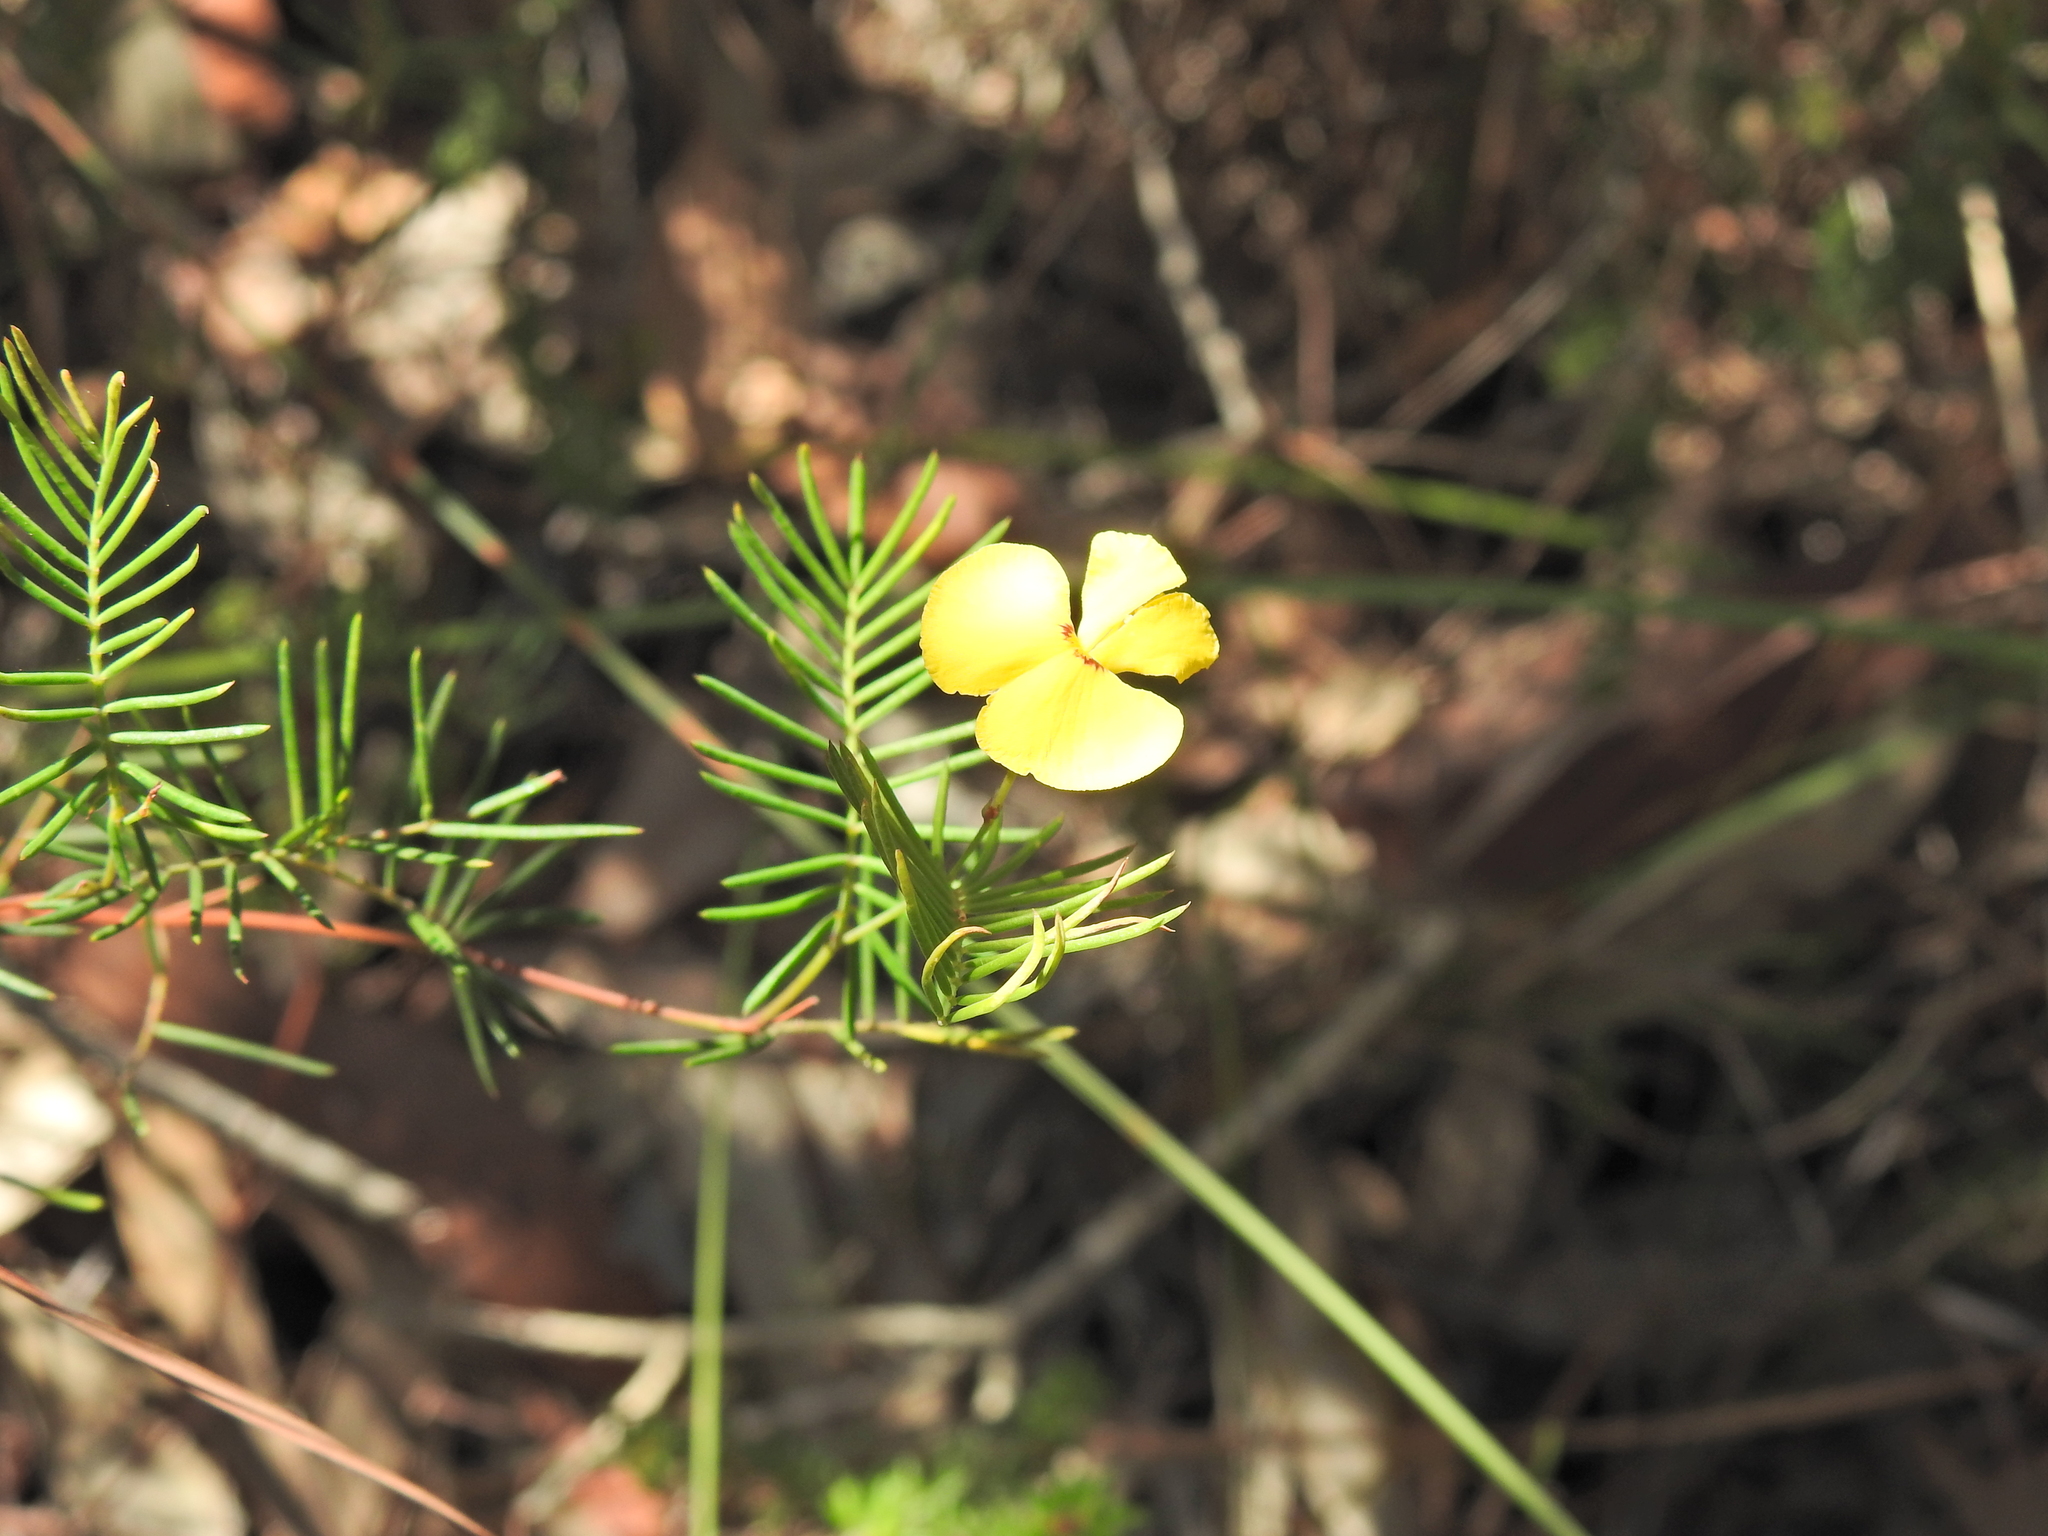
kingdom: Plantae
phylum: Tracheophyta
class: Magnoliopsida
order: Fabales
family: Fabaceae
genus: Gompholobium
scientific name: Gompholobium pinnatum
